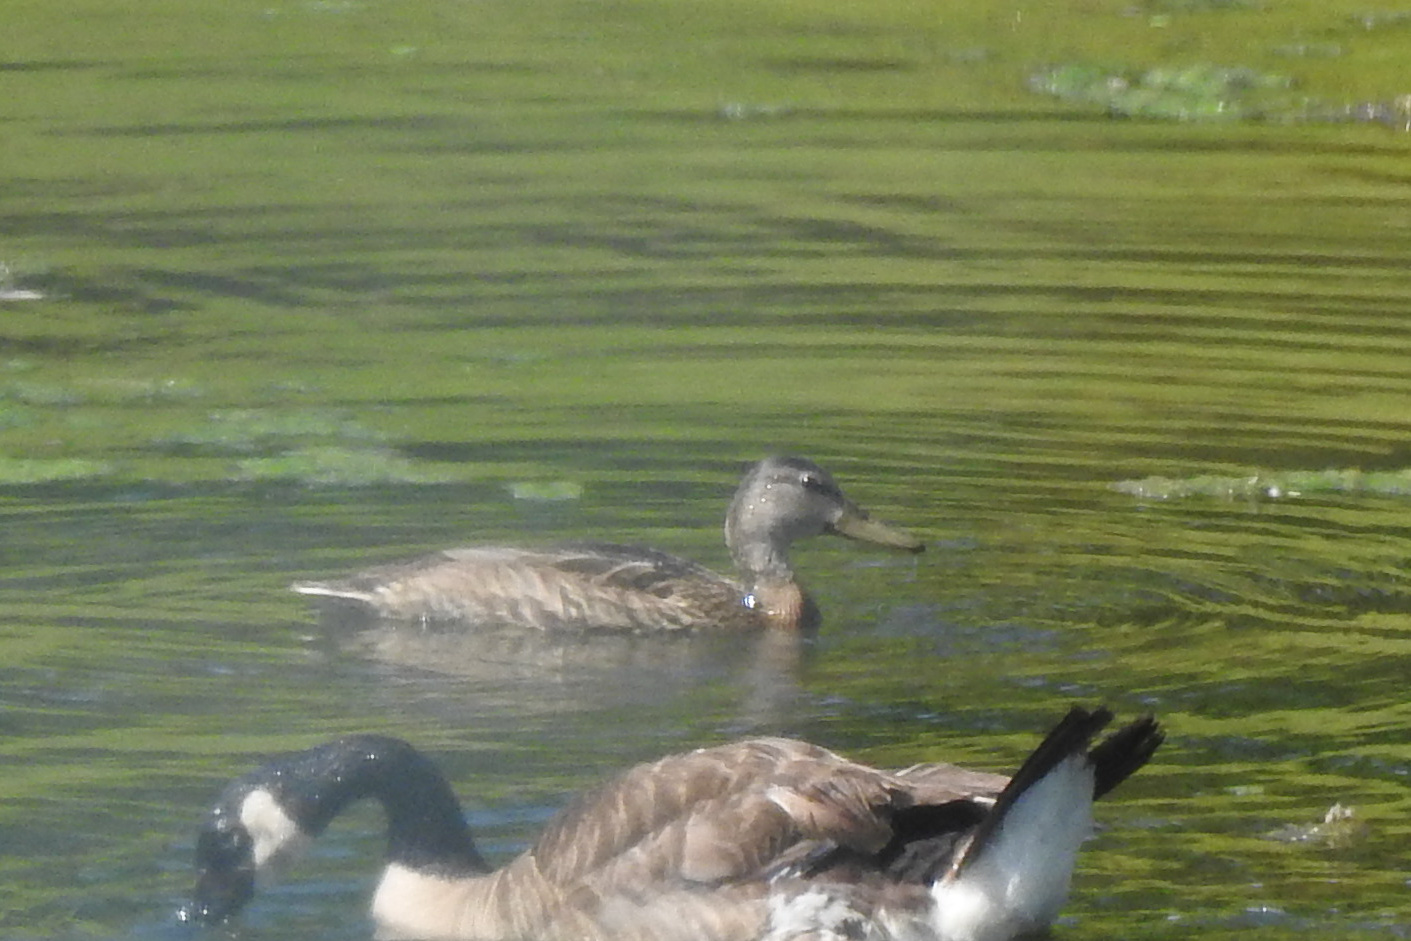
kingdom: Animalia
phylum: Chordata
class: Aves
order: Anseriformes
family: Anatidae
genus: Anas
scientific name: Anas platyrhynchos
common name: Mallard
